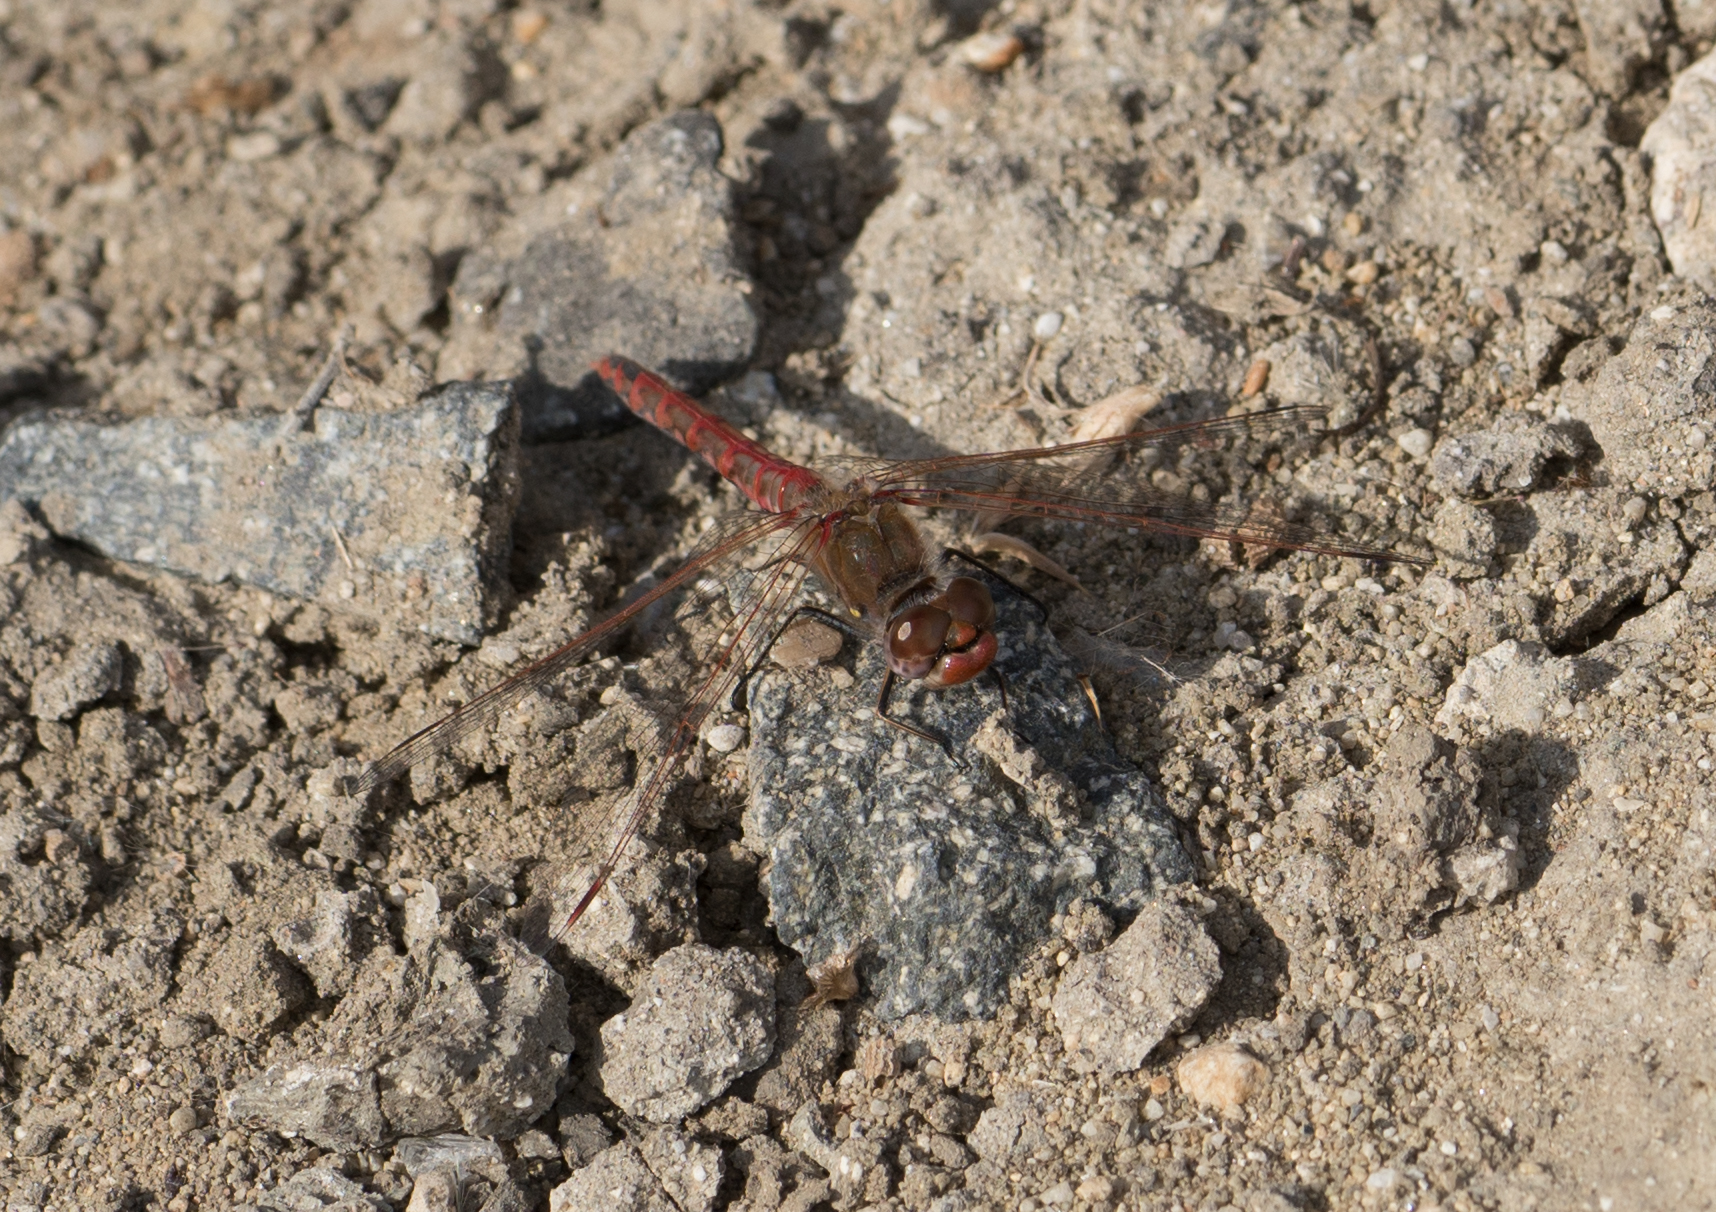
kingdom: Animalia
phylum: Arthropoda
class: Insecta
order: Odonata
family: Libellulidae
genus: Sympetrum
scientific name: Sympetrum corruptum
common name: Variegated meadowhawk
